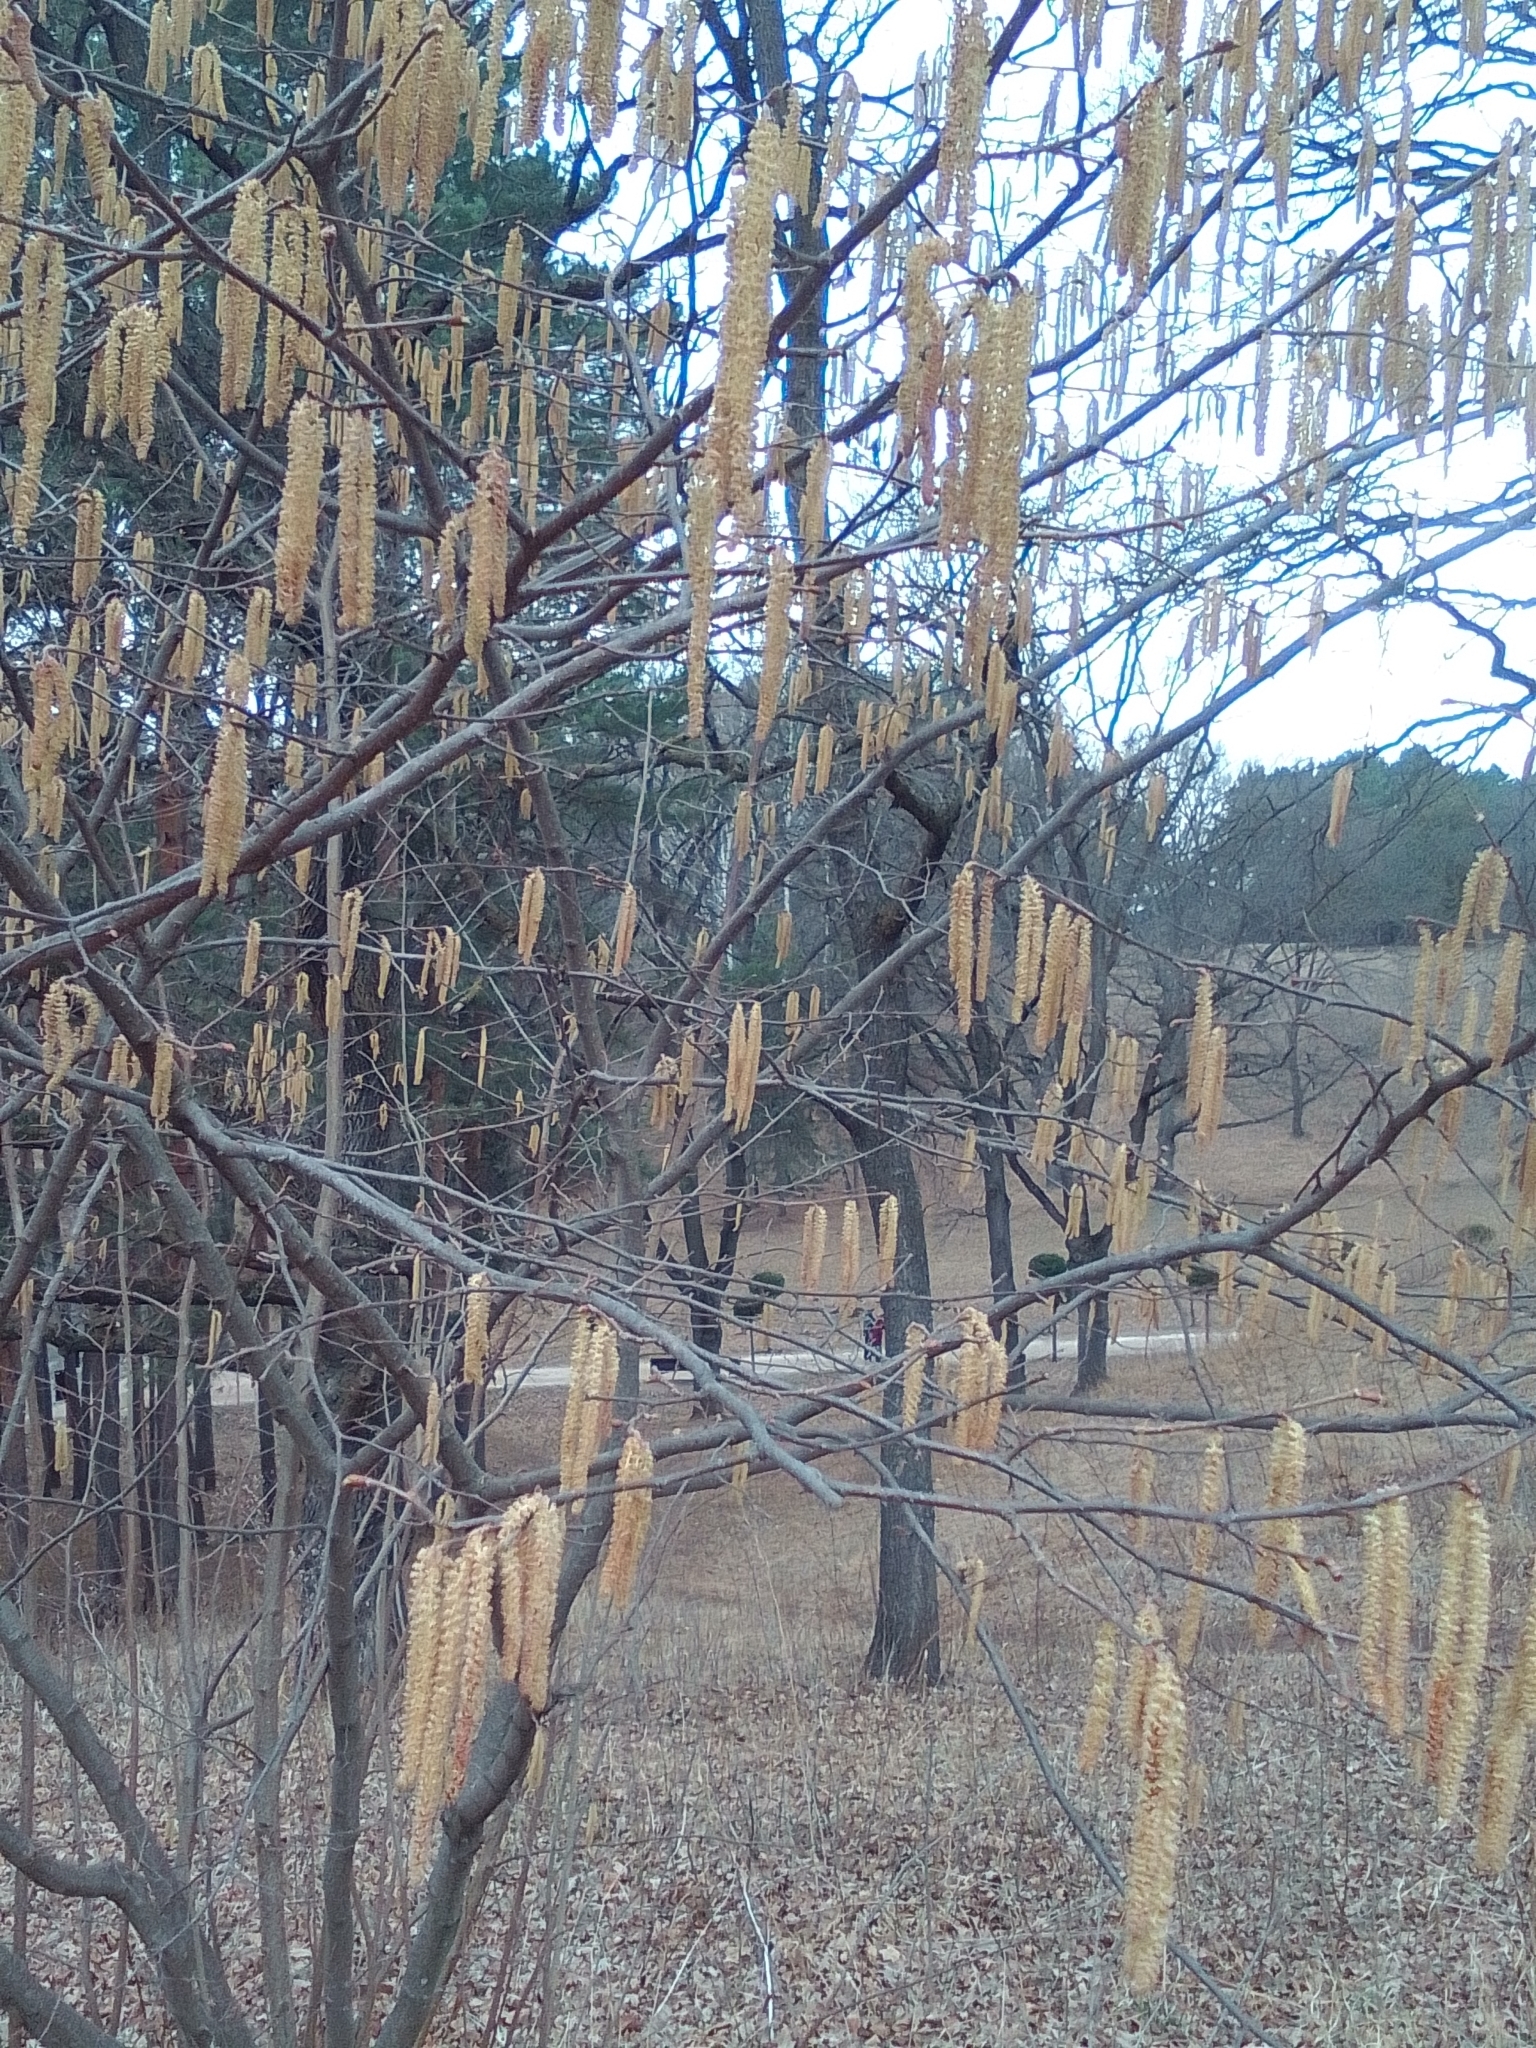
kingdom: Plantae
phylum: Tracheophyta
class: Magnoliopsida
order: Fagales
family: Betulaceae
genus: Corylus
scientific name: Corylus avellana
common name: European hazel
